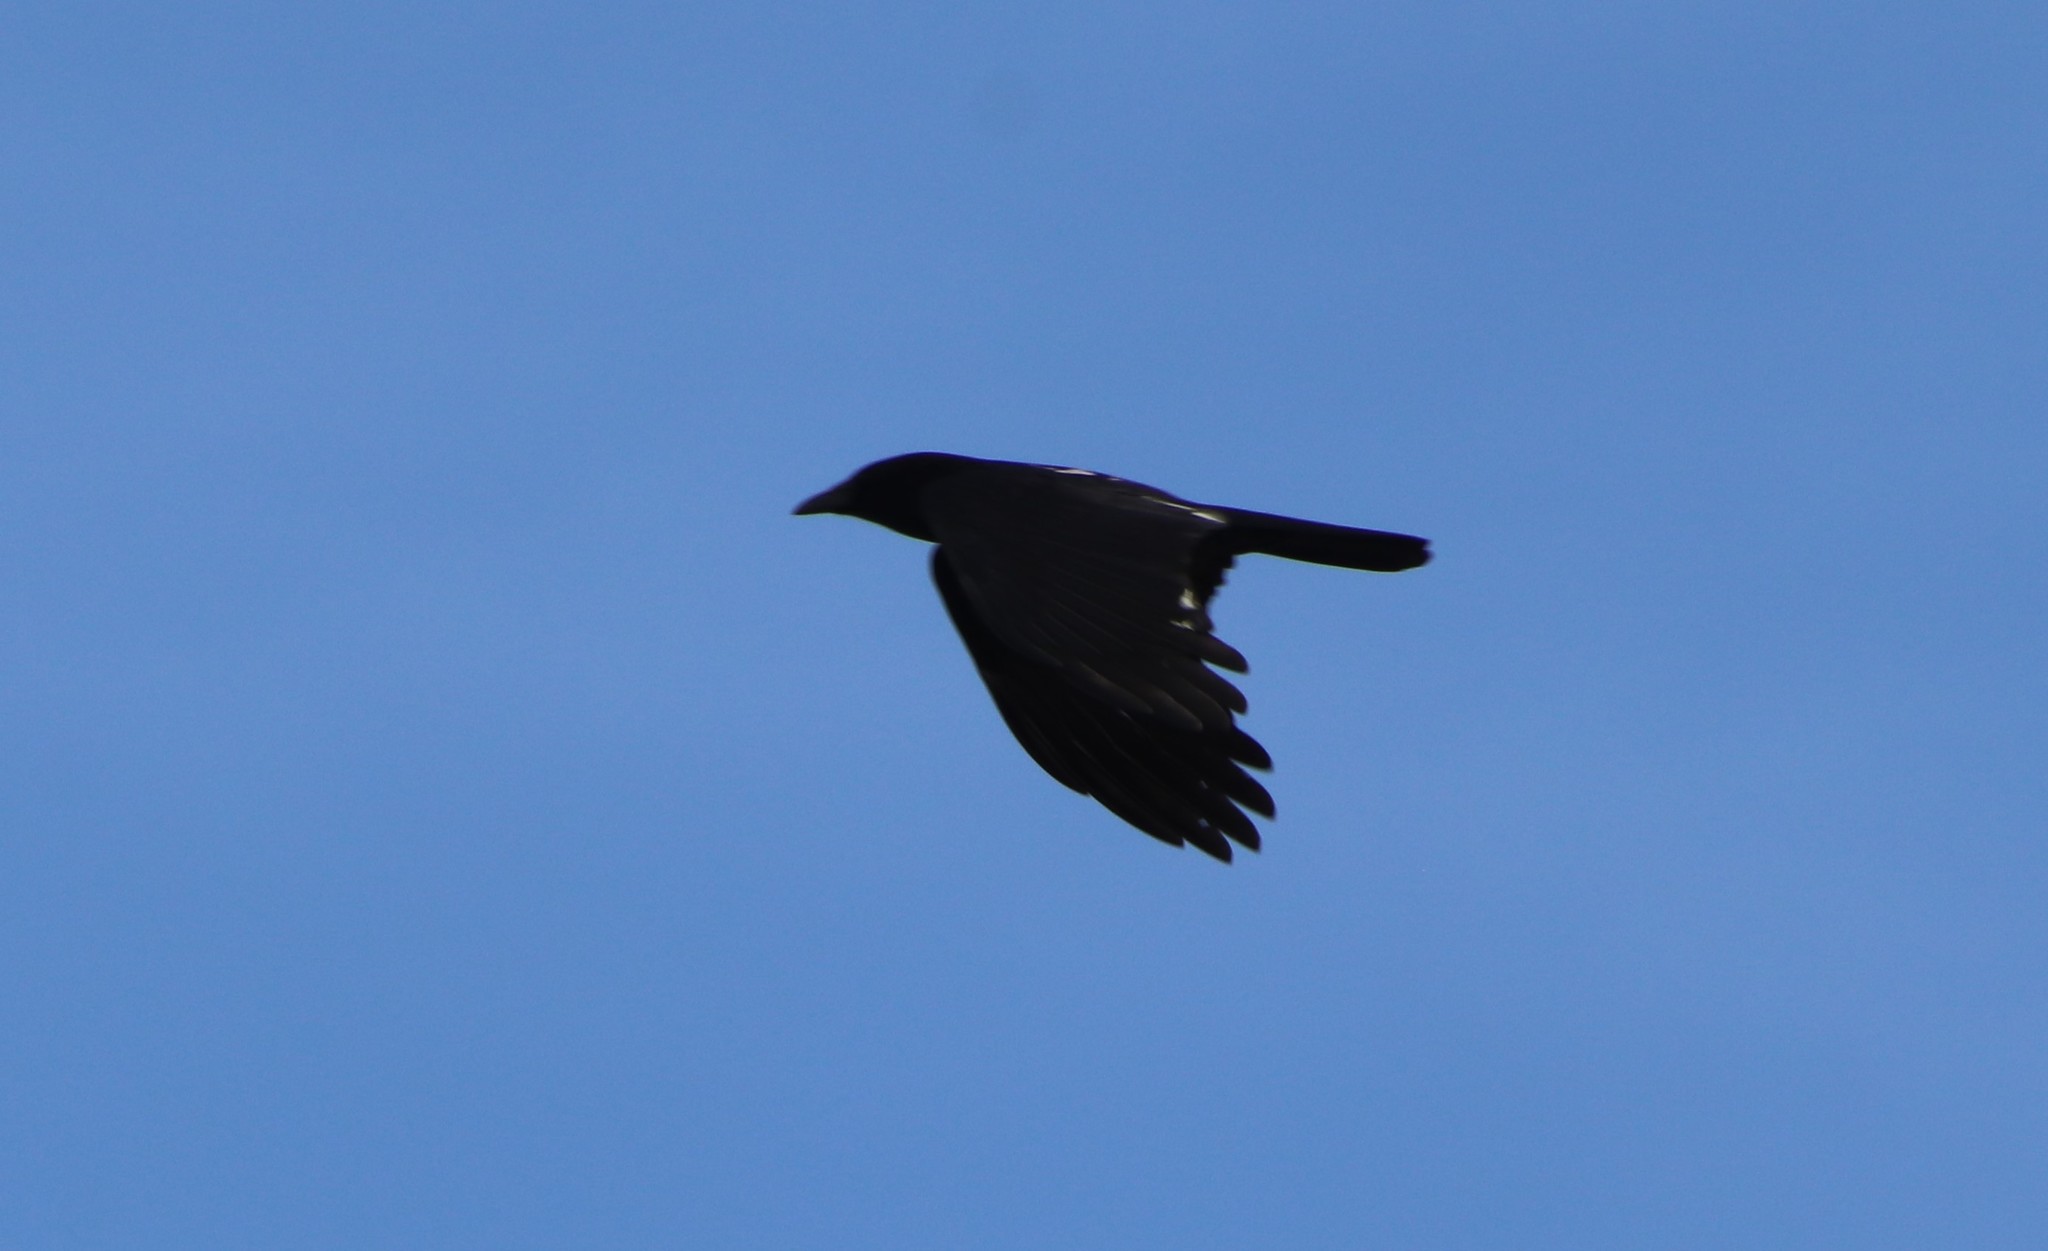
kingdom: Animalia
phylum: Chordata
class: Aves
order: Passeriformes
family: Corvidae
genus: Corvus
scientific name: Corvus brachyrhynchos
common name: American crow
